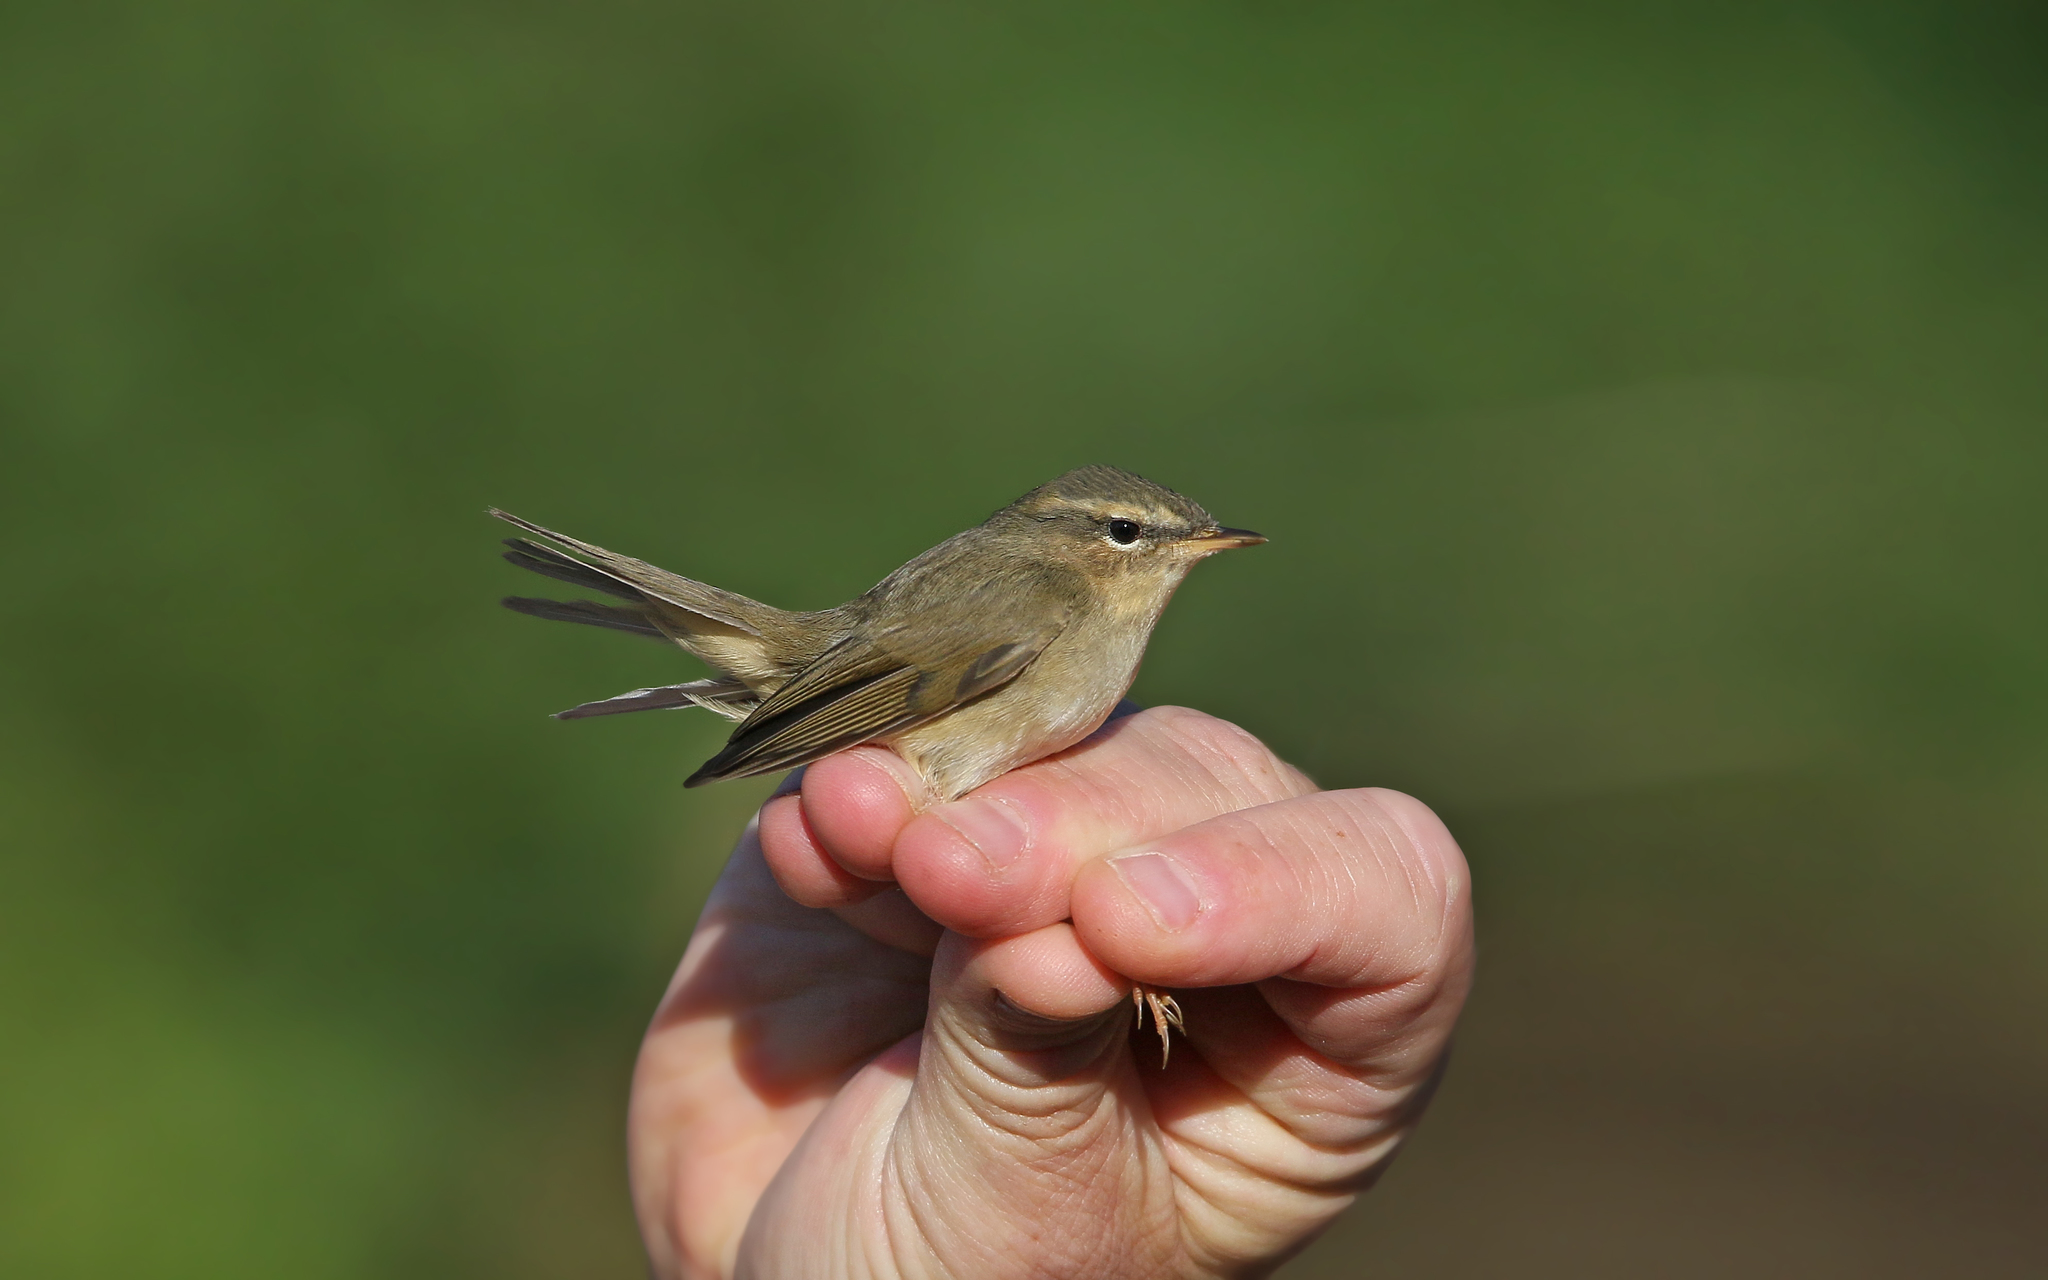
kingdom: Animalia
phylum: Chordata
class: Aves
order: Passeriformes
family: Phylloscopidae
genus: Phylloscopus
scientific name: Phylloscopus fuscatus
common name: Dusky warbler
